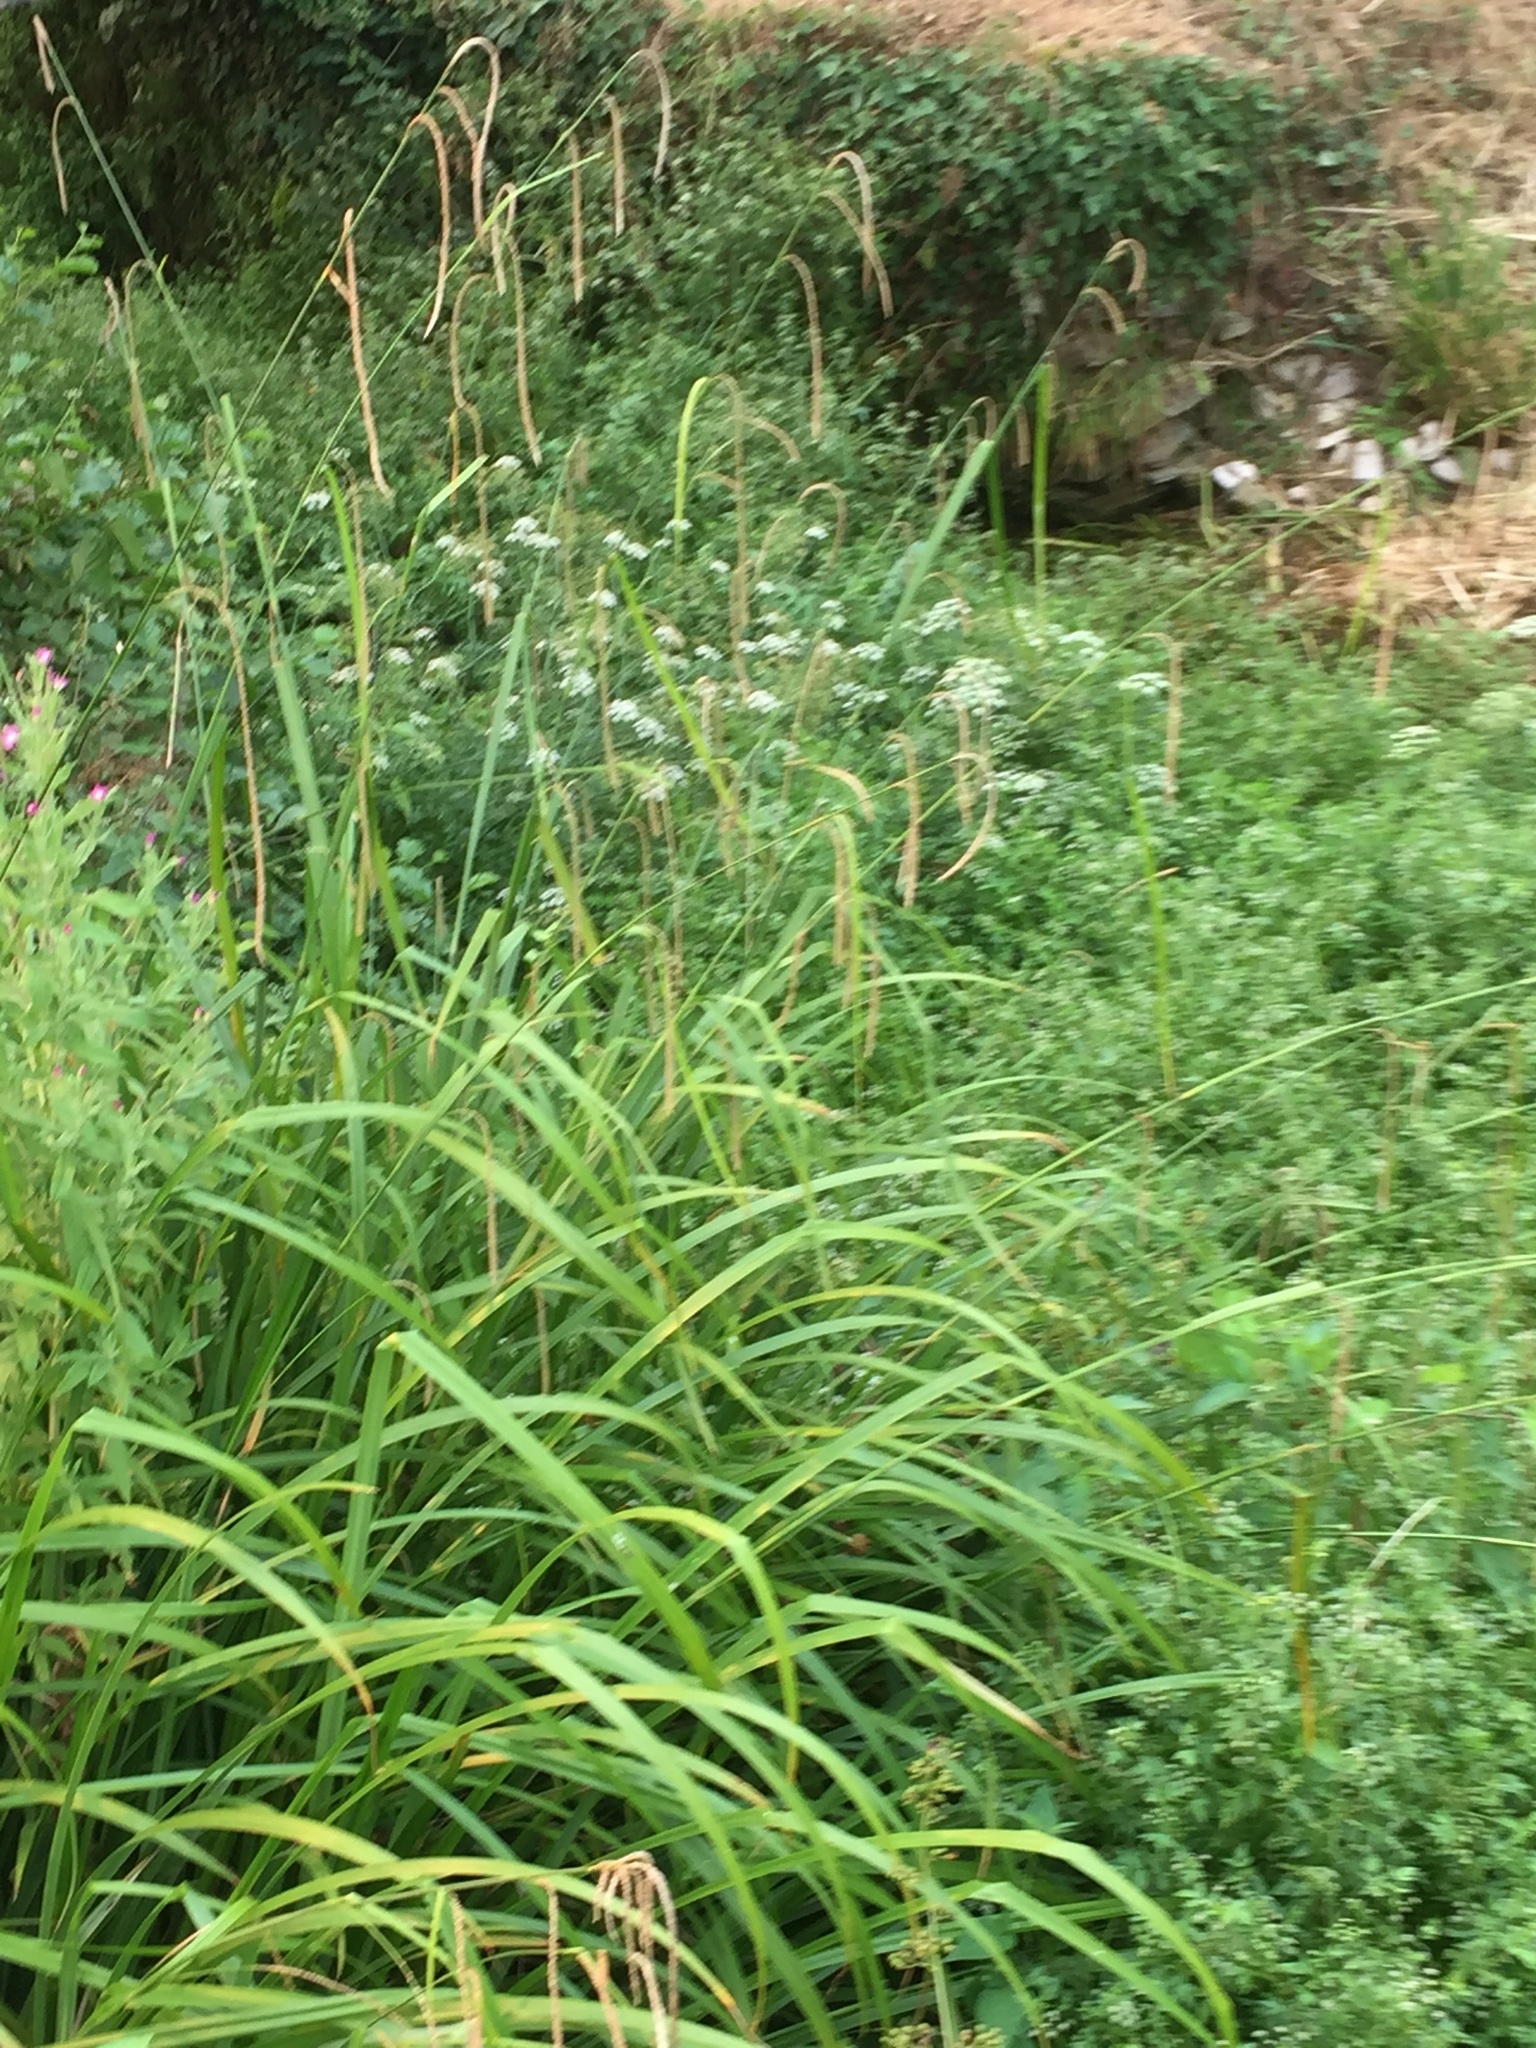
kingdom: Plantae
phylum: Tracheophyta
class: Liliopsida
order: Poales
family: Cyperaceae
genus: Carex
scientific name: Carex pendula
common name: Pendulous sedge
